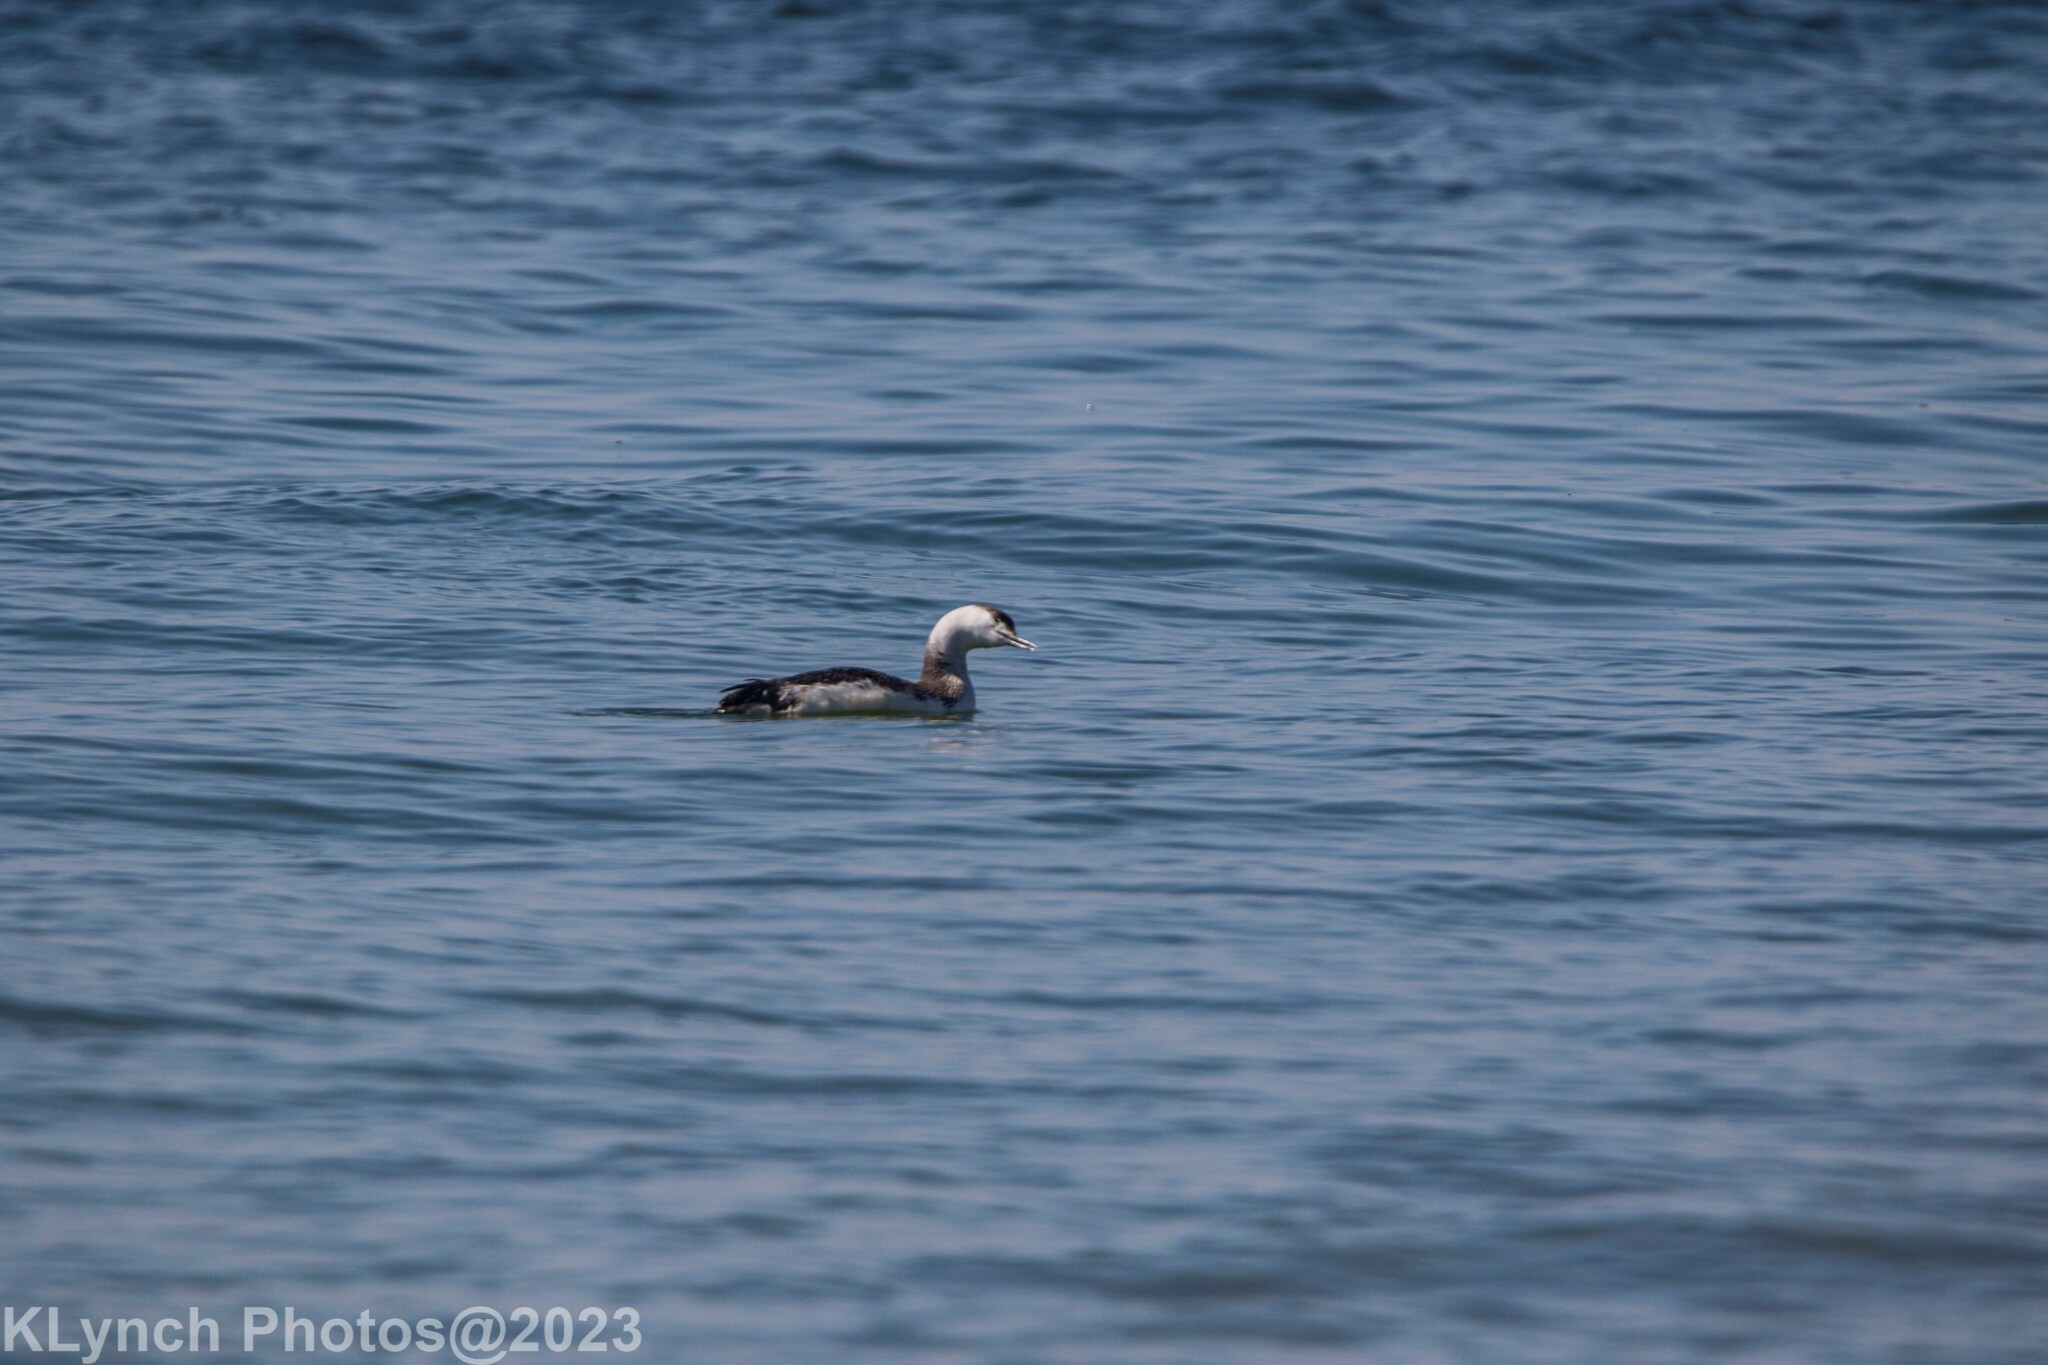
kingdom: Animalia
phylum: Chordata
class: Aves
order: Gaviiformes
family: Gaviidae
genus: Gavia
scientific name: Gavia stellata
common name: Red-throated loon
